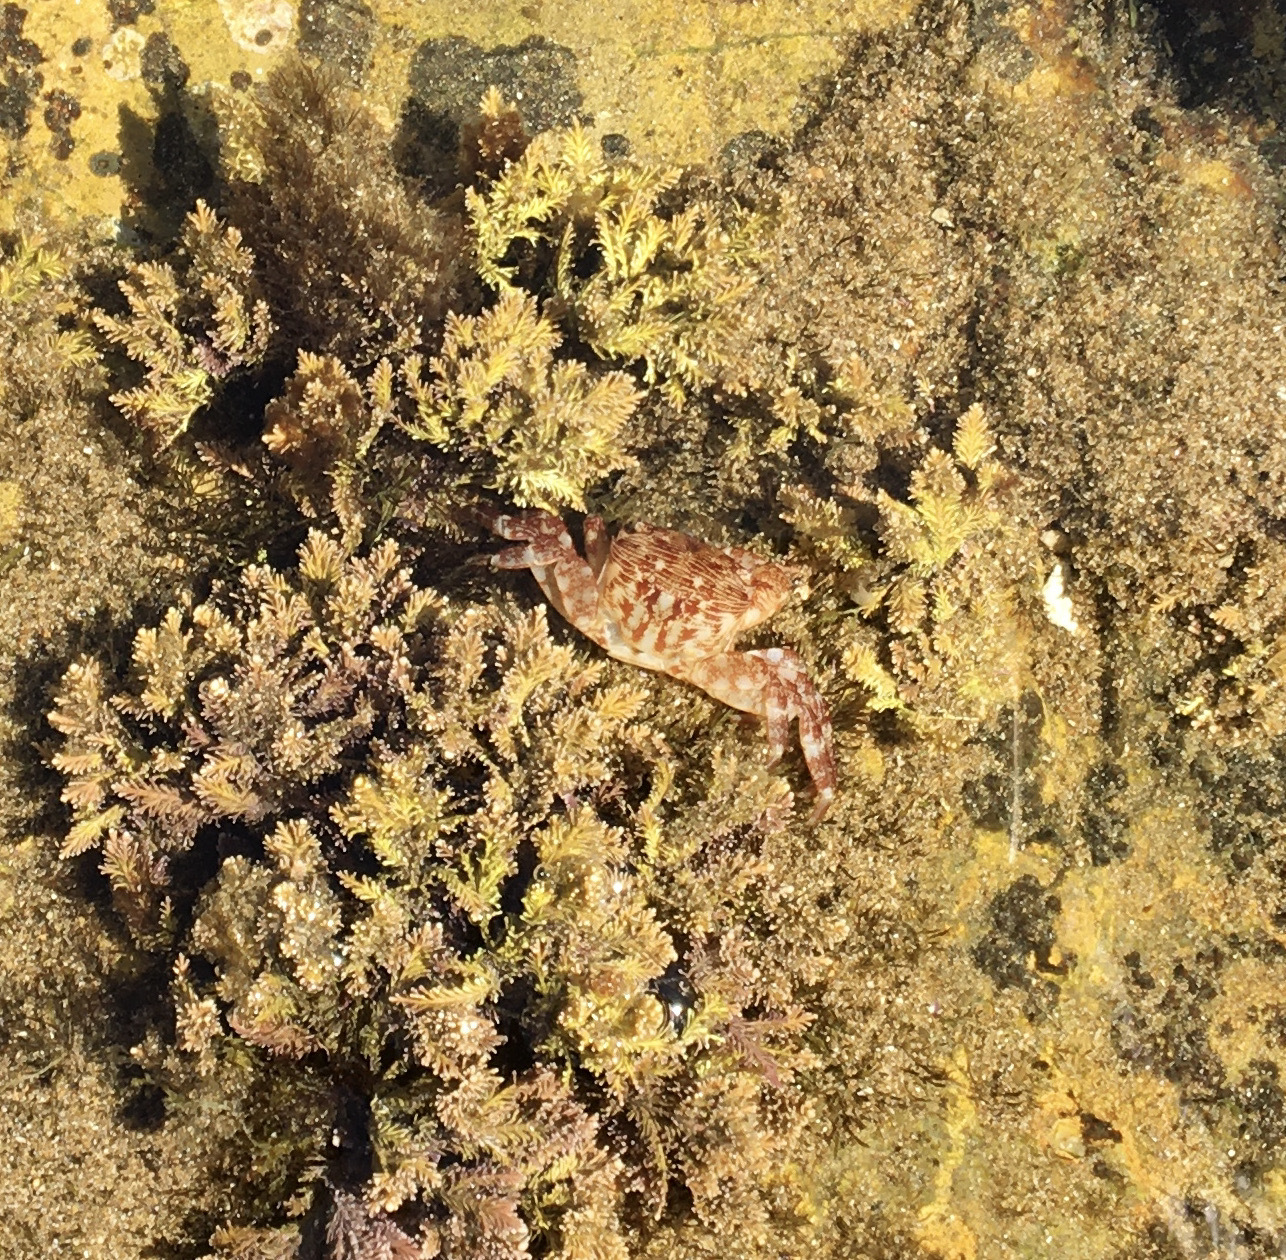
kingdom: Animalia
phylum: Arthropoda
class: Malacostraca
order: Decapoda
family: Grapsidae
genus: Pachygrapsus
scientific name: Pachygrapsus crassipes
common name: Striped shore crab
